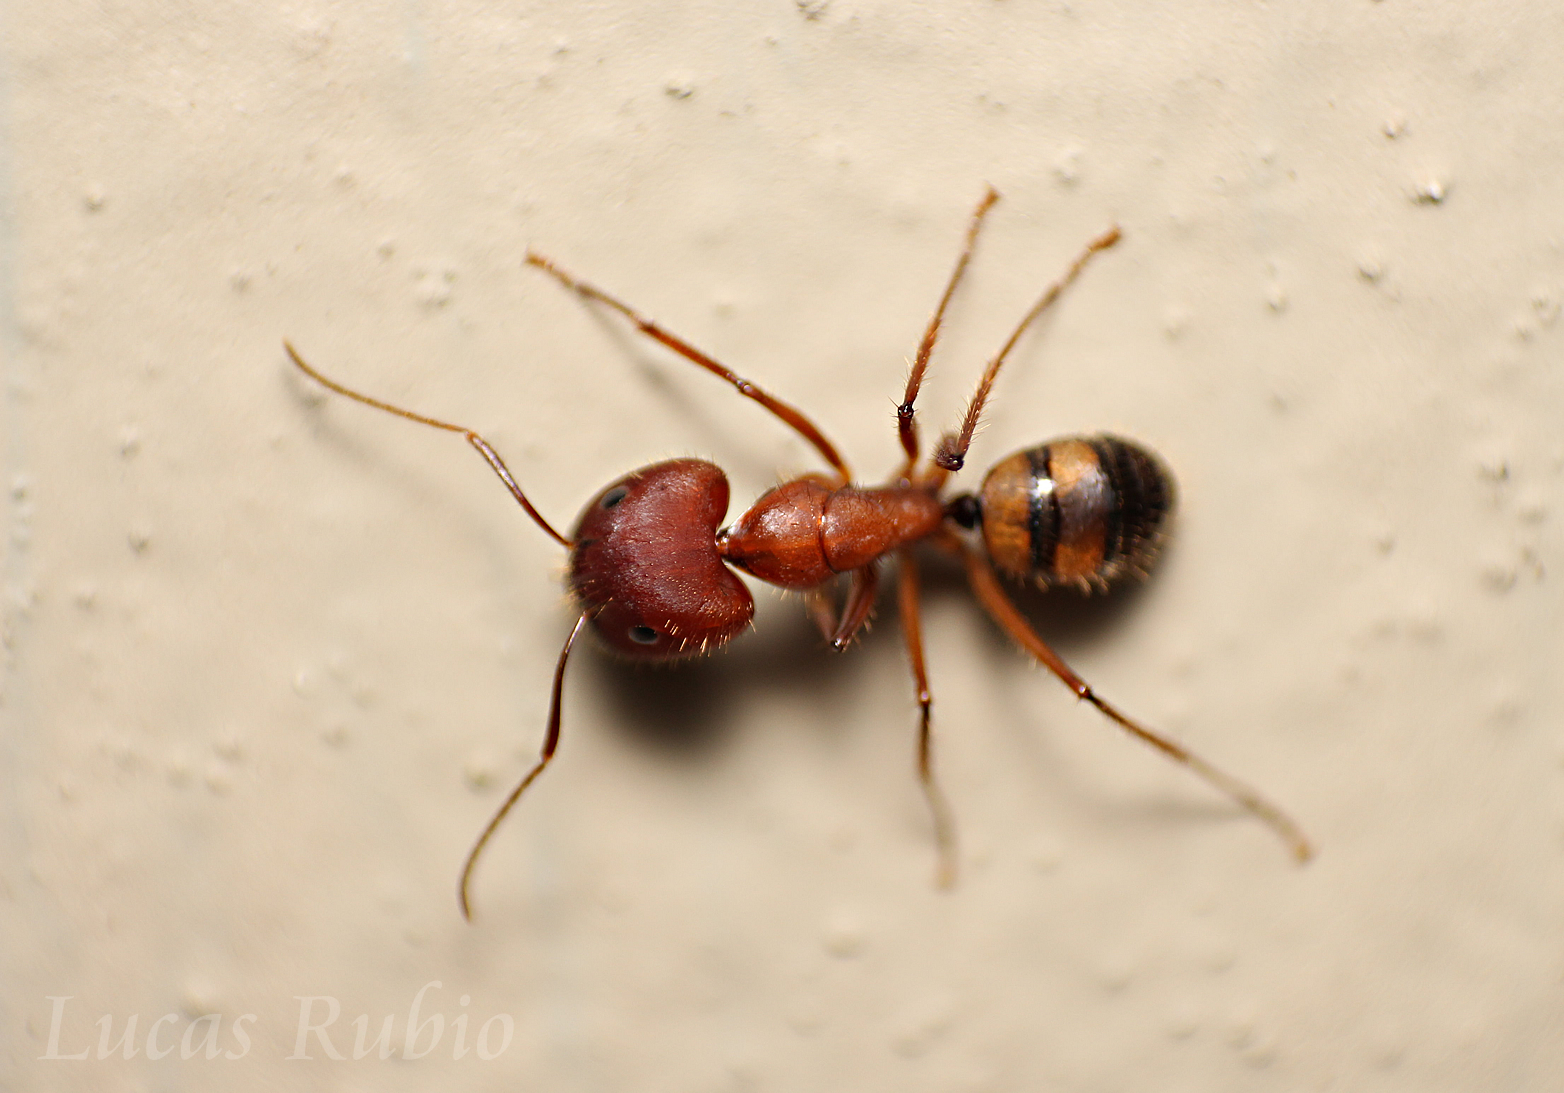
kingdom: Animalia
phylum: Arthropoda
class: Insecta
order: Hymenoptera
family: Formicidae
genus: Camponotus
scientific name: Camponotus cingulatus
